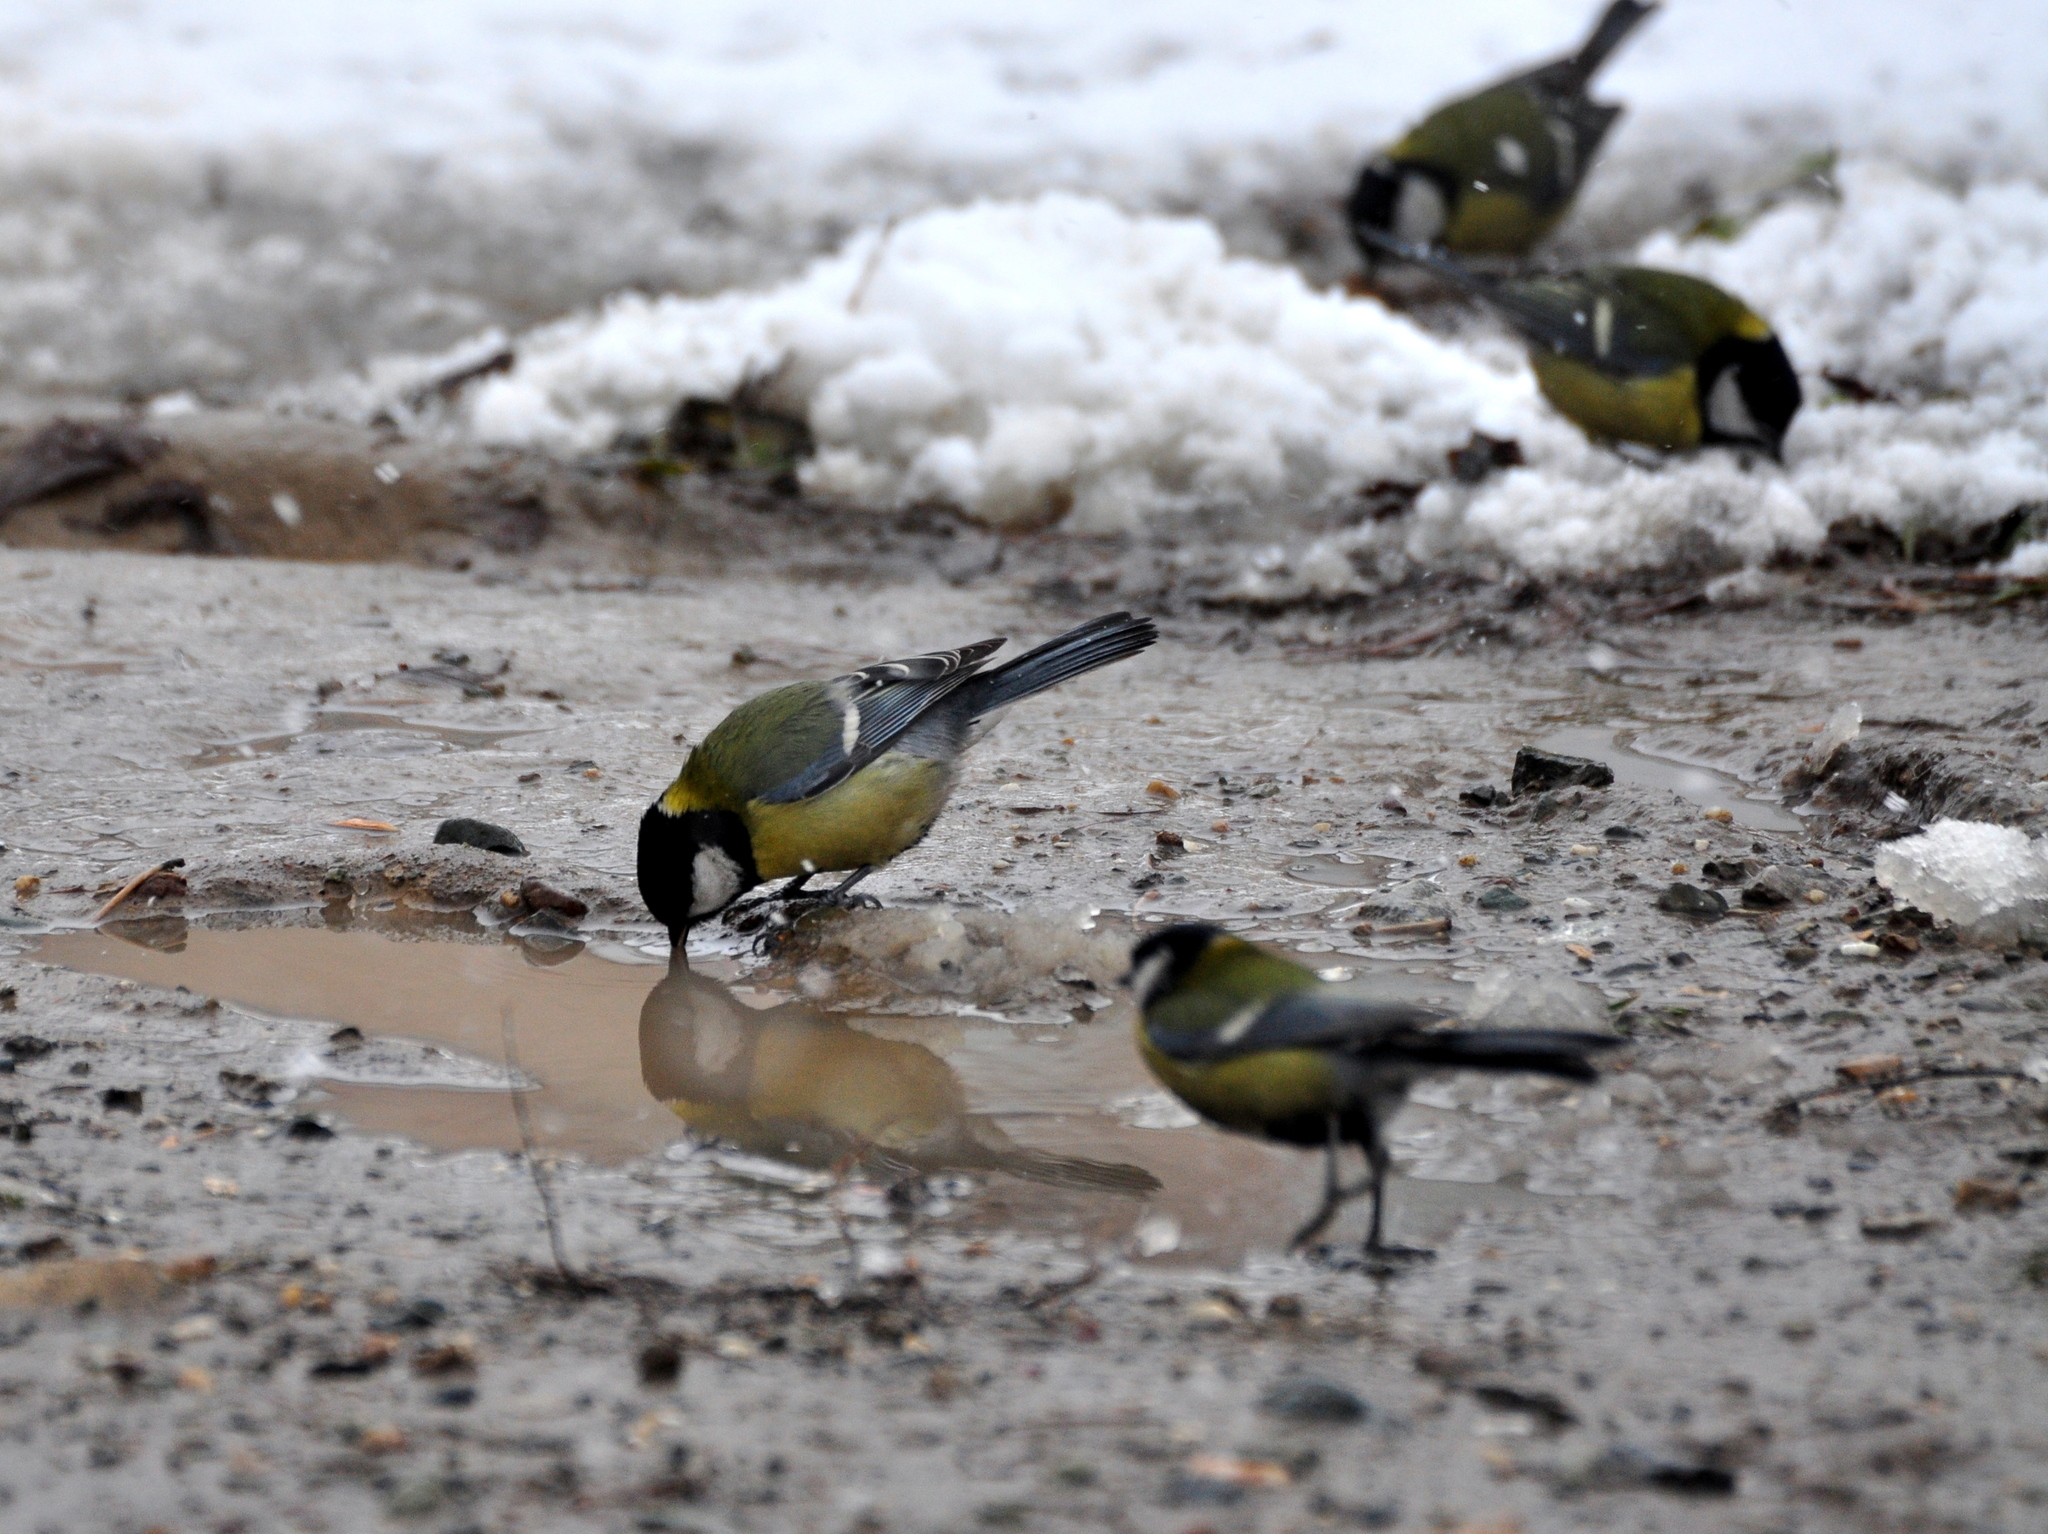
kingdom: Animalia
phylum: Chordata
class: Aves
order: Passeriformes
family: Paridae
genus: Parus
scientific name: Parus major
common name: Great tit
